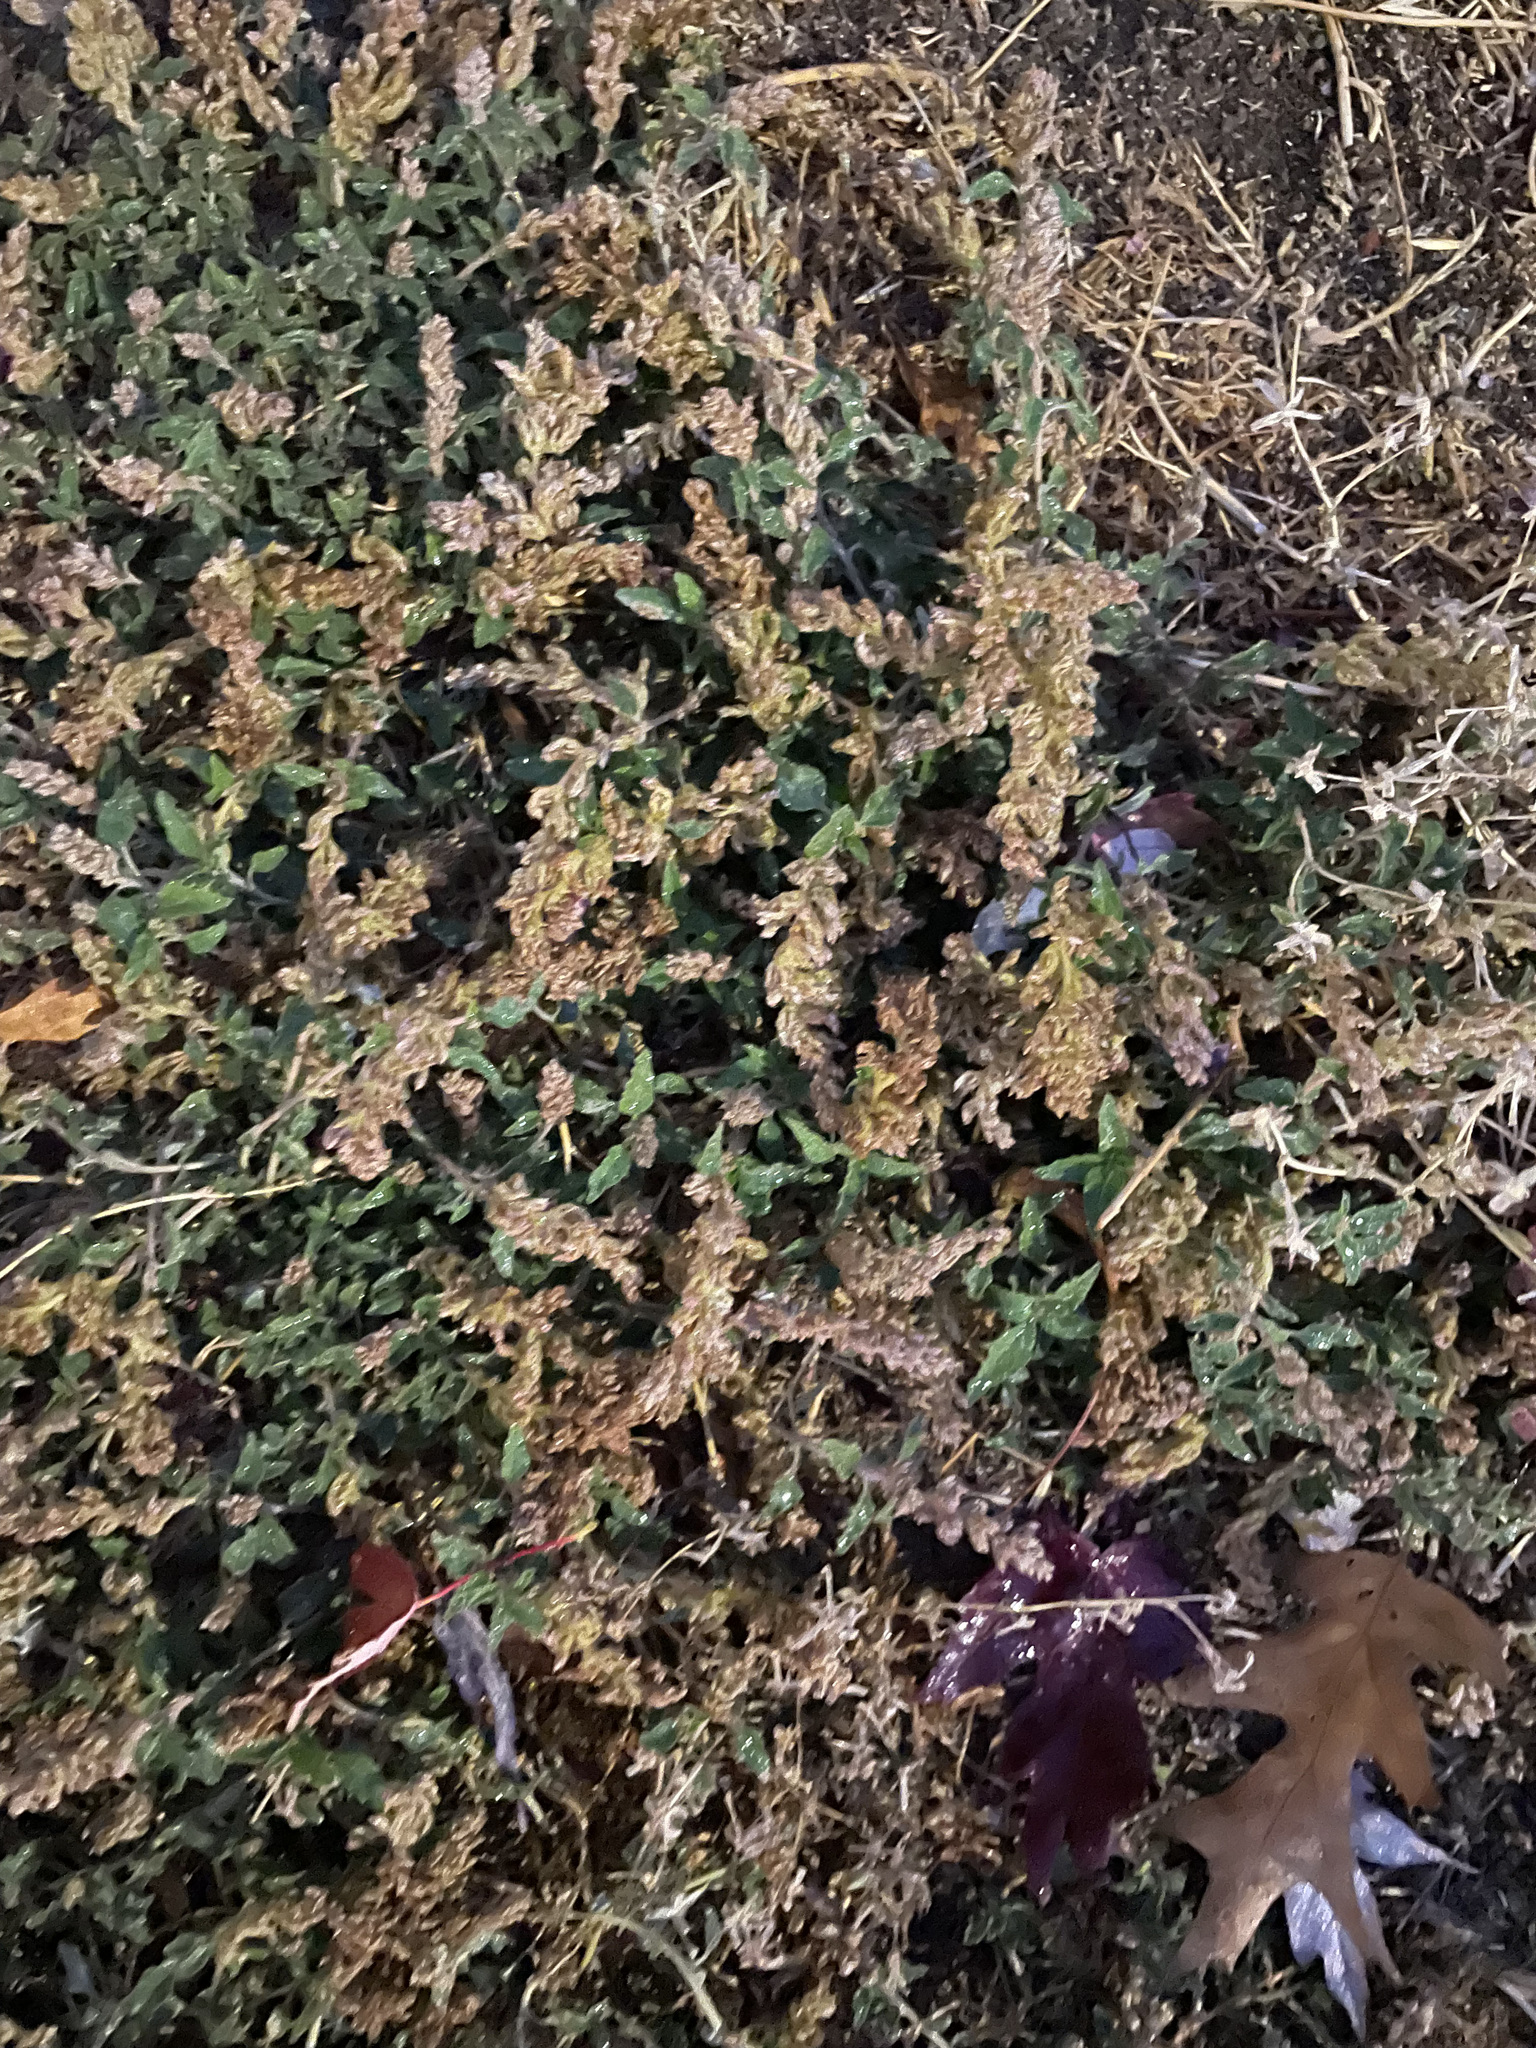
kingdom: Plantae
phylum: Tracheophyta
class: Magnoliopsida
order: Caryophyllales
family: Amaranthaceae
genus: Amaranthus
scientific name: Amaranthus deflexus
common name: Perennial pigweed
